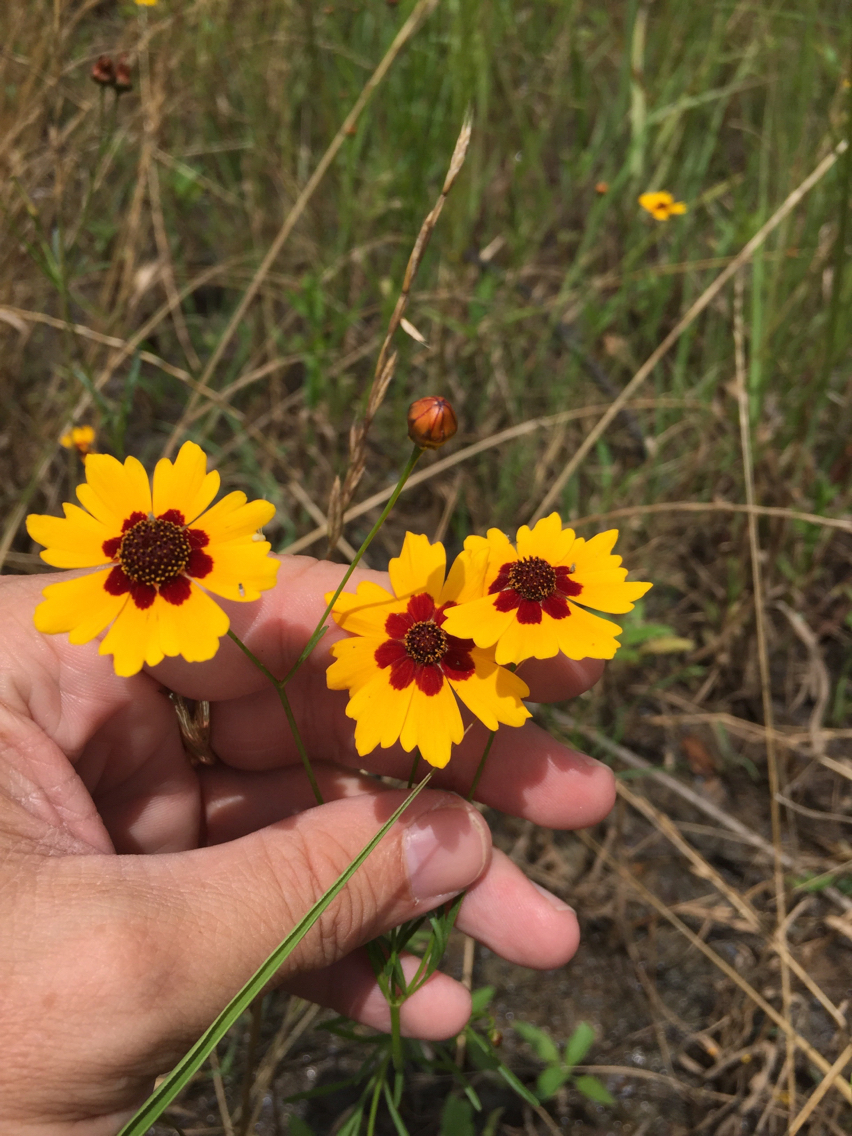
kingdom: Plantae
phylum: Tracheophyta
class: Magnoliopsida
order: Asterales
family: Asteraceae
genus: Coreopsis
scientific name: Coreopsis tinctoria
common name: Garden tickseed
